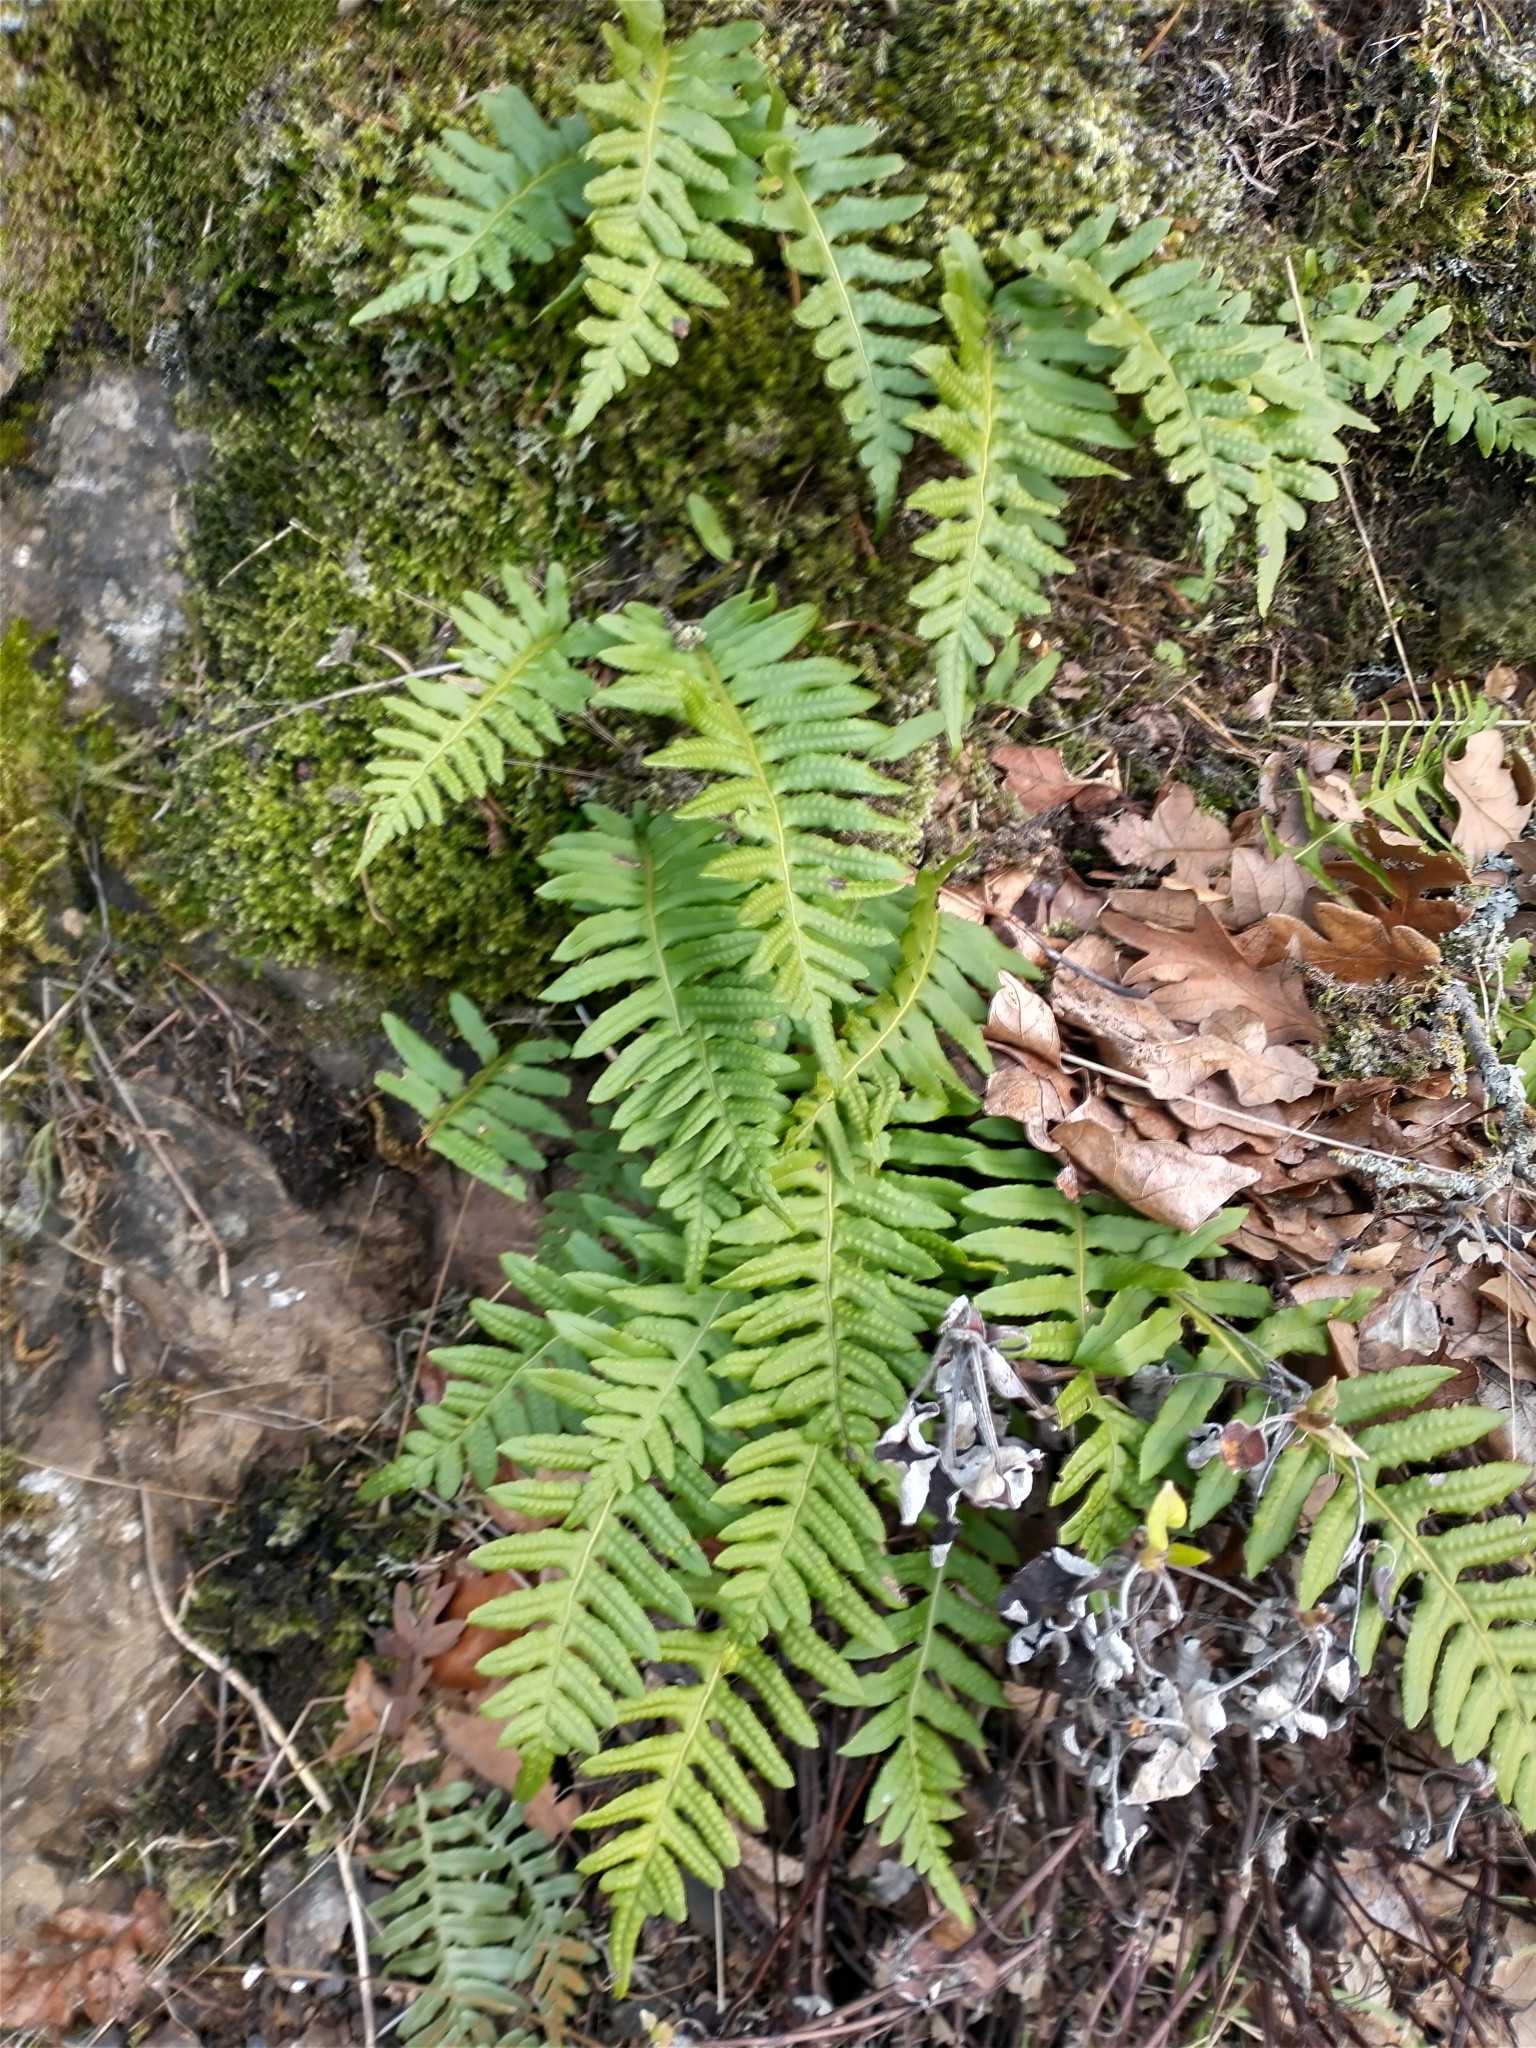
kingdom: Plantae
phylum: Tracheophyta
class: Polypodiopsida
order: Polypodiales
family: Polypodiaceae
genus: Polypodium
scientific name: Polypodium glycyrrhiza
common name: Licorice fern
